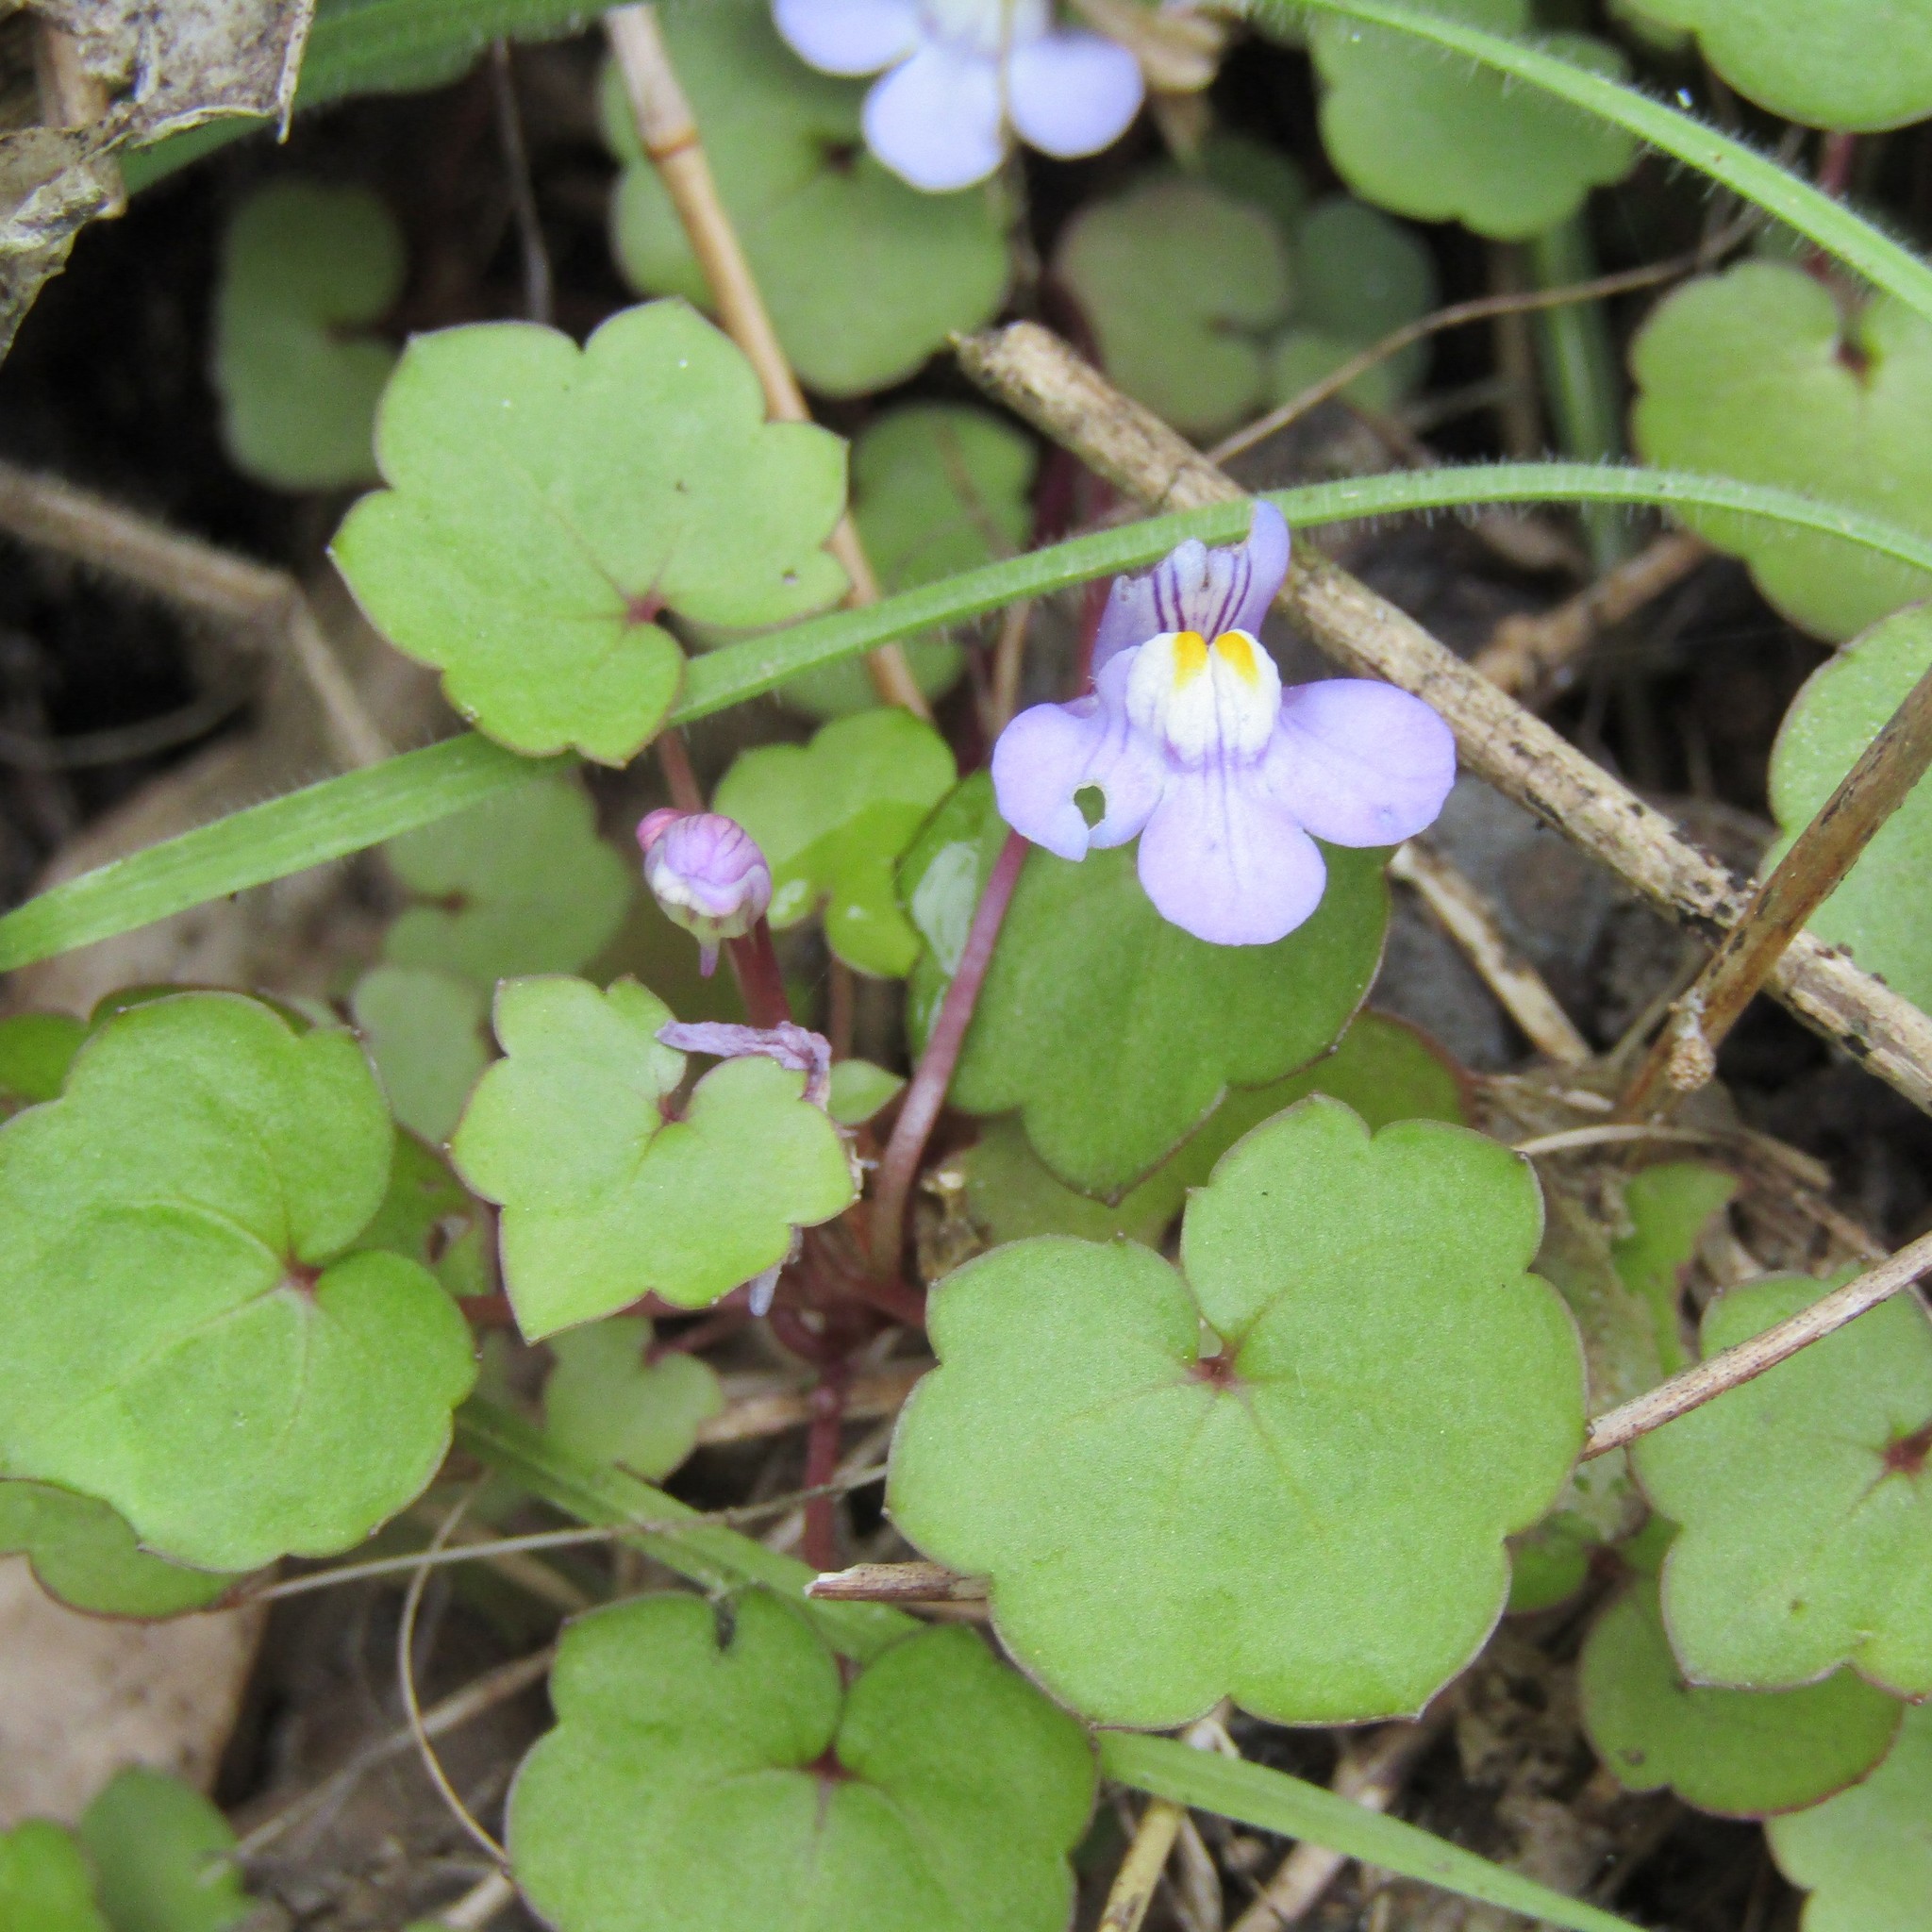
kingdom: Plantae
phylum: Tracheophyta
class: Magnoliopsida
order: Lamiales
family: Plantaginaceae
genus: Cymbalaria
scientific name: Cymbalaria muralis
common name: Ivy-leaved toadflax
